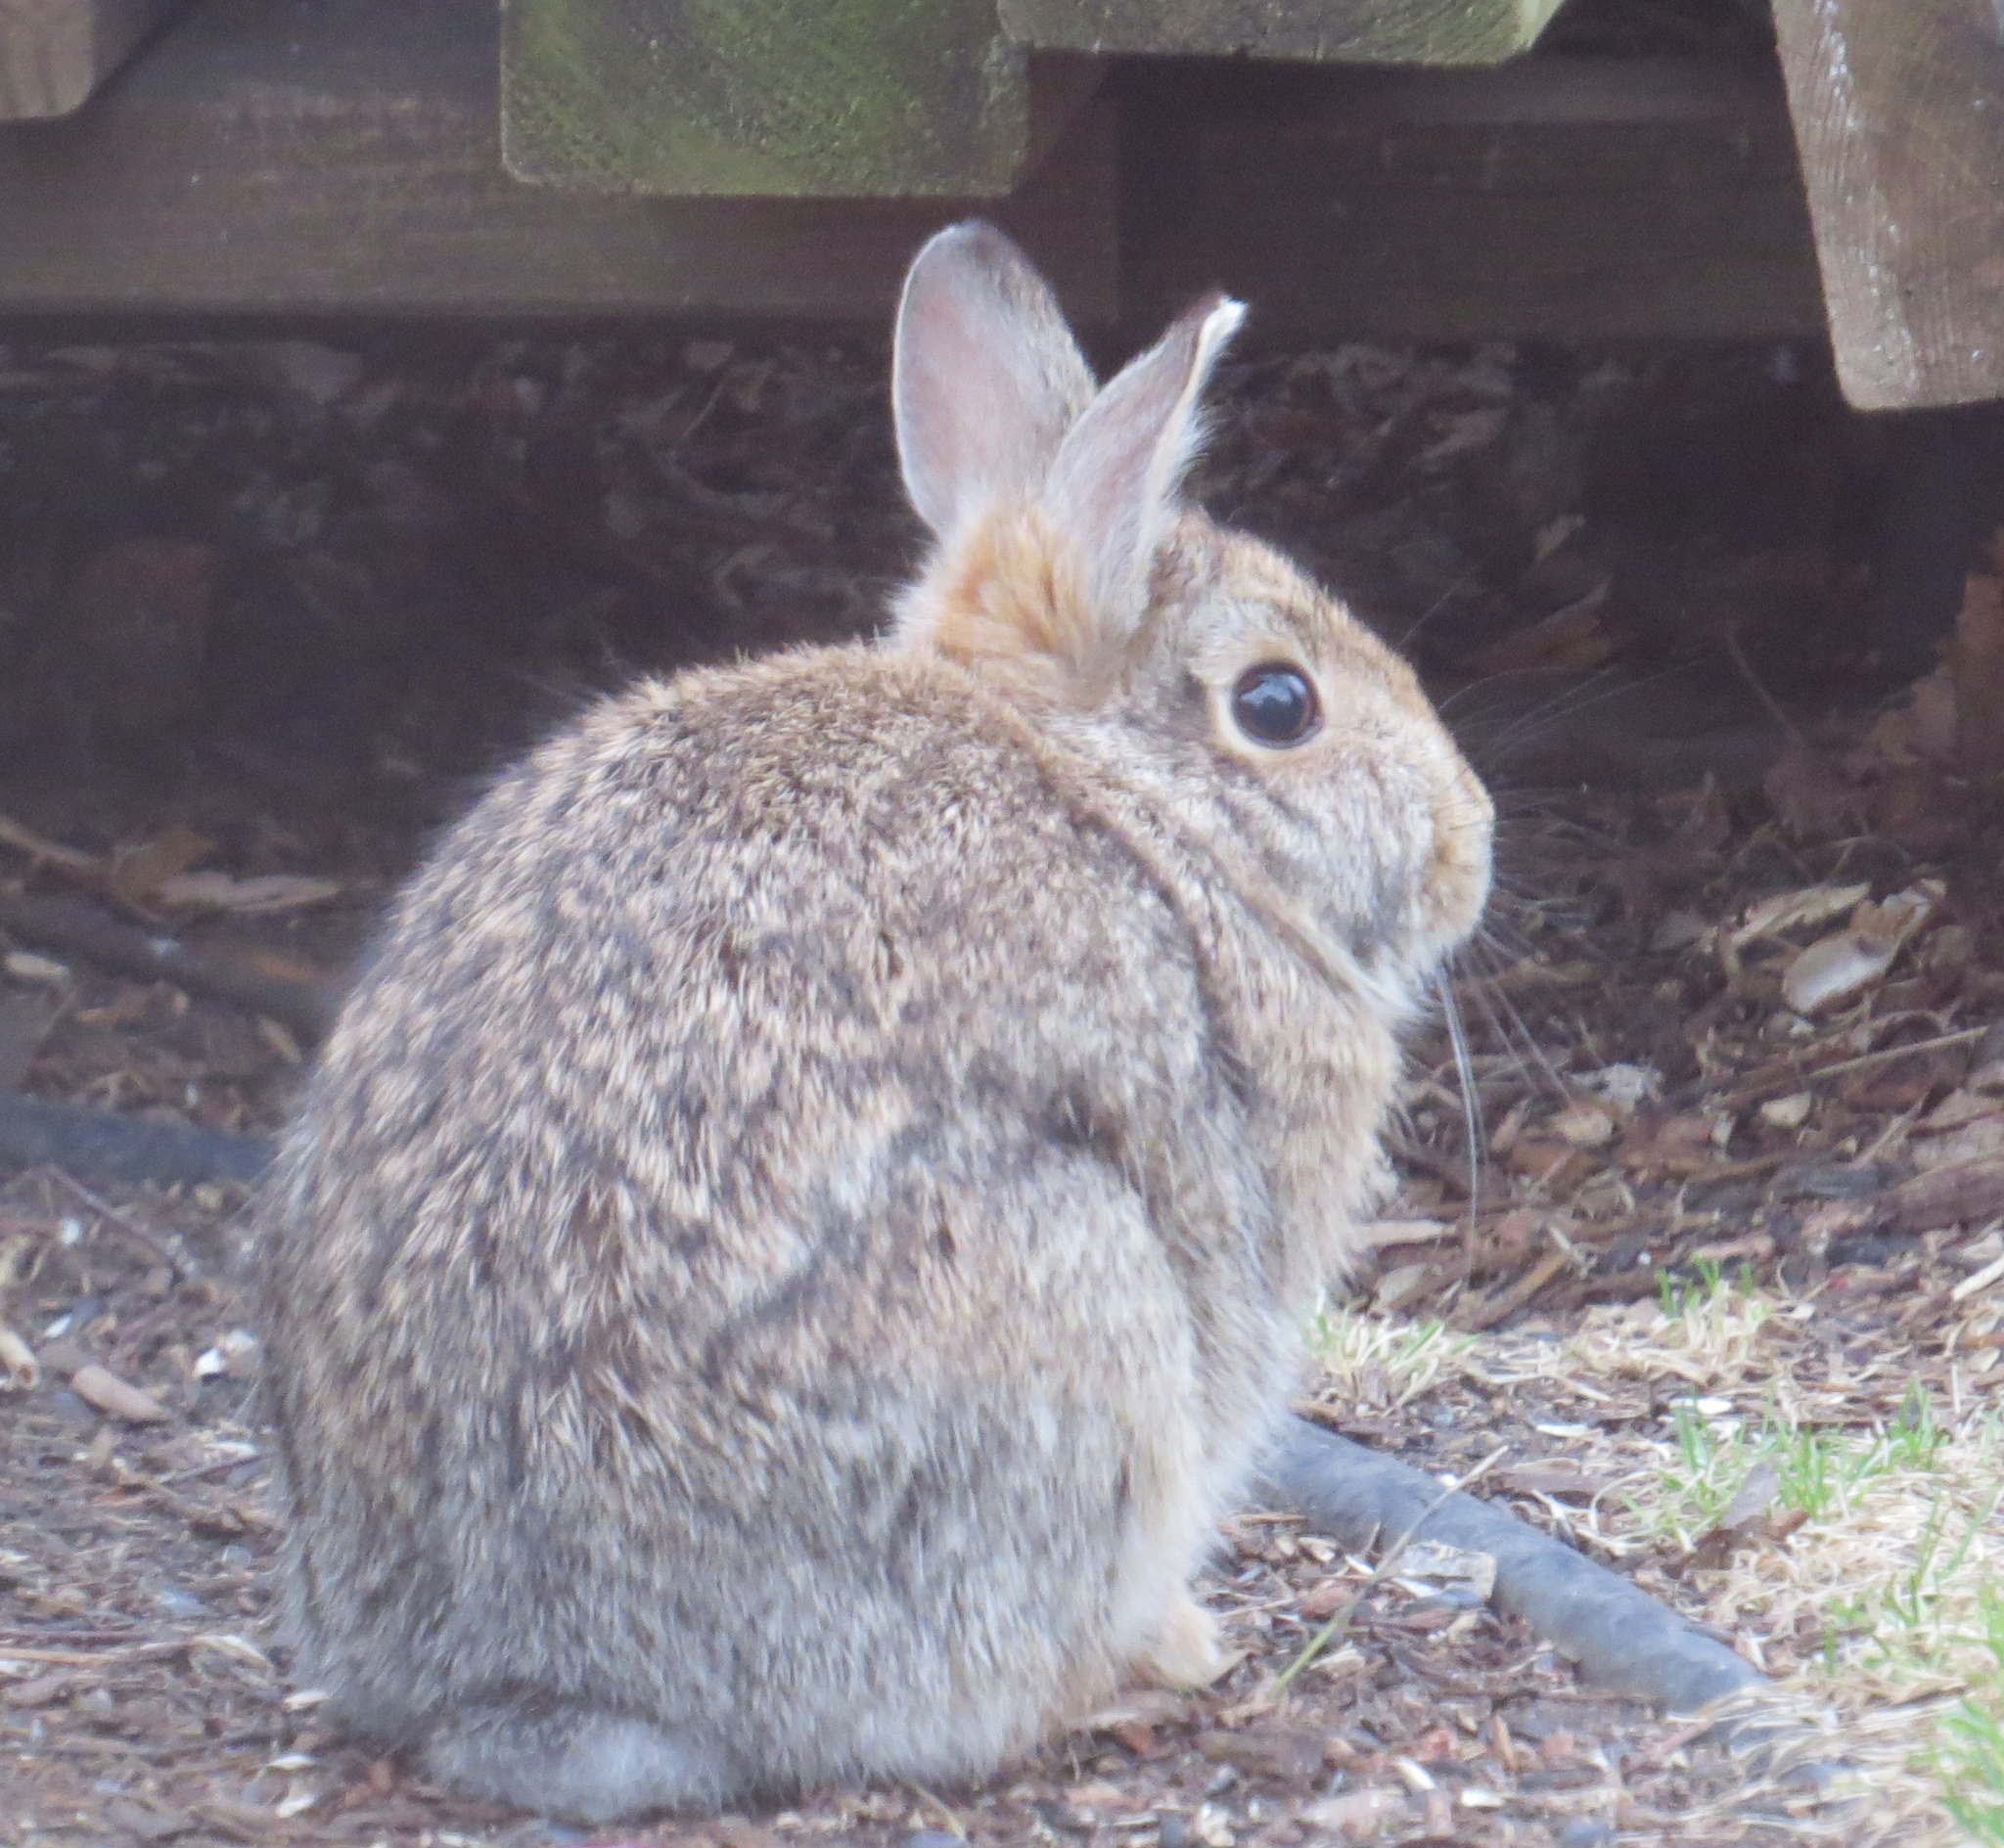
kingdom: Animalia
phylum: Chordata
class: Mammalia
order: Lagomorpha
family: Leporidae
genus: Sylvilagus
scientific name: Sylvilagus floridanus
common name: Eastern cottontail
